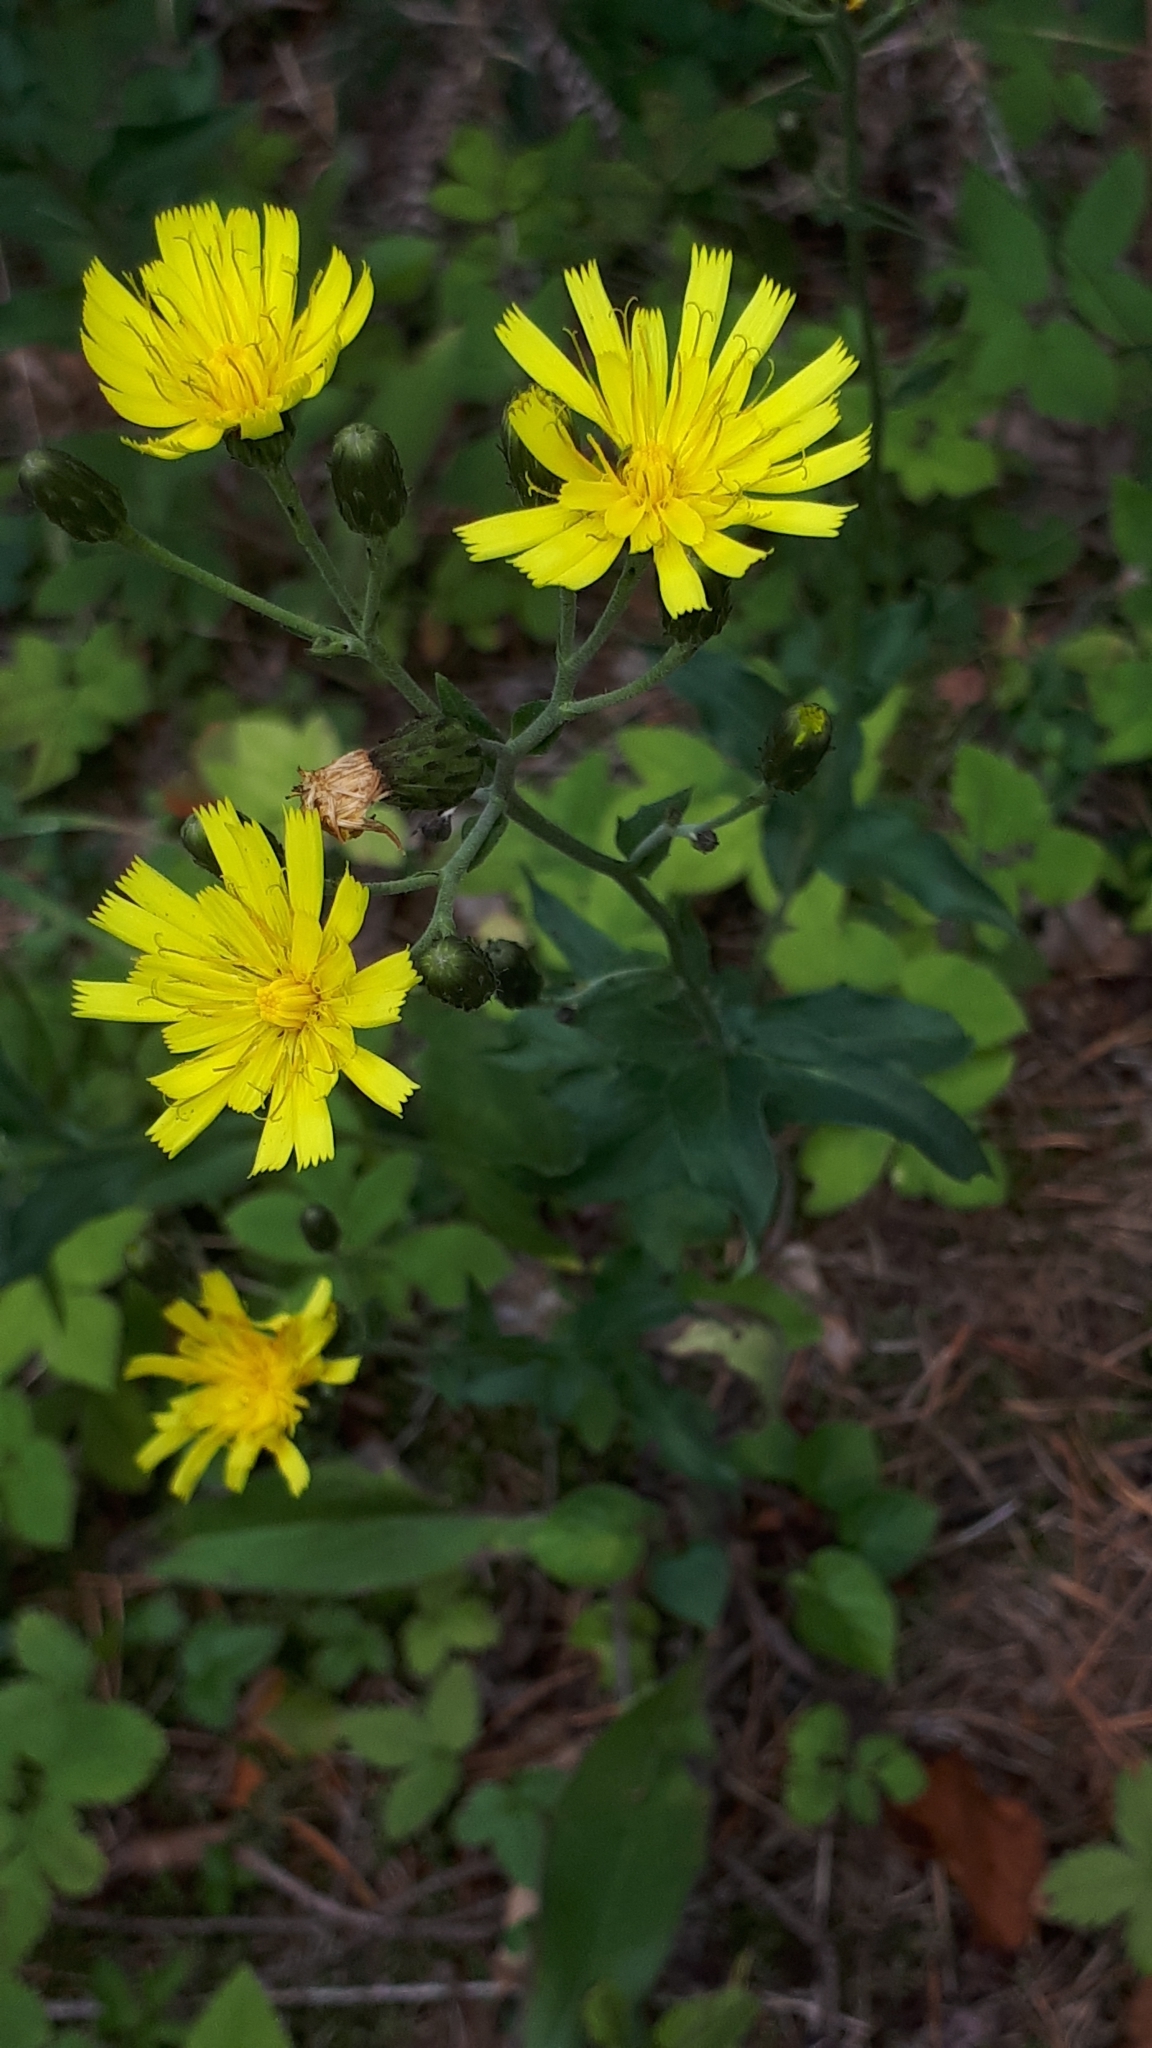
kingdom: Plantae
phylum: Tracheophyta
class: Magnoliopsida
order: Asterales
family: Asteraceae
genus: Hieracium
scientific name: Hieracium sabaudum
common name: New england hawkweed
